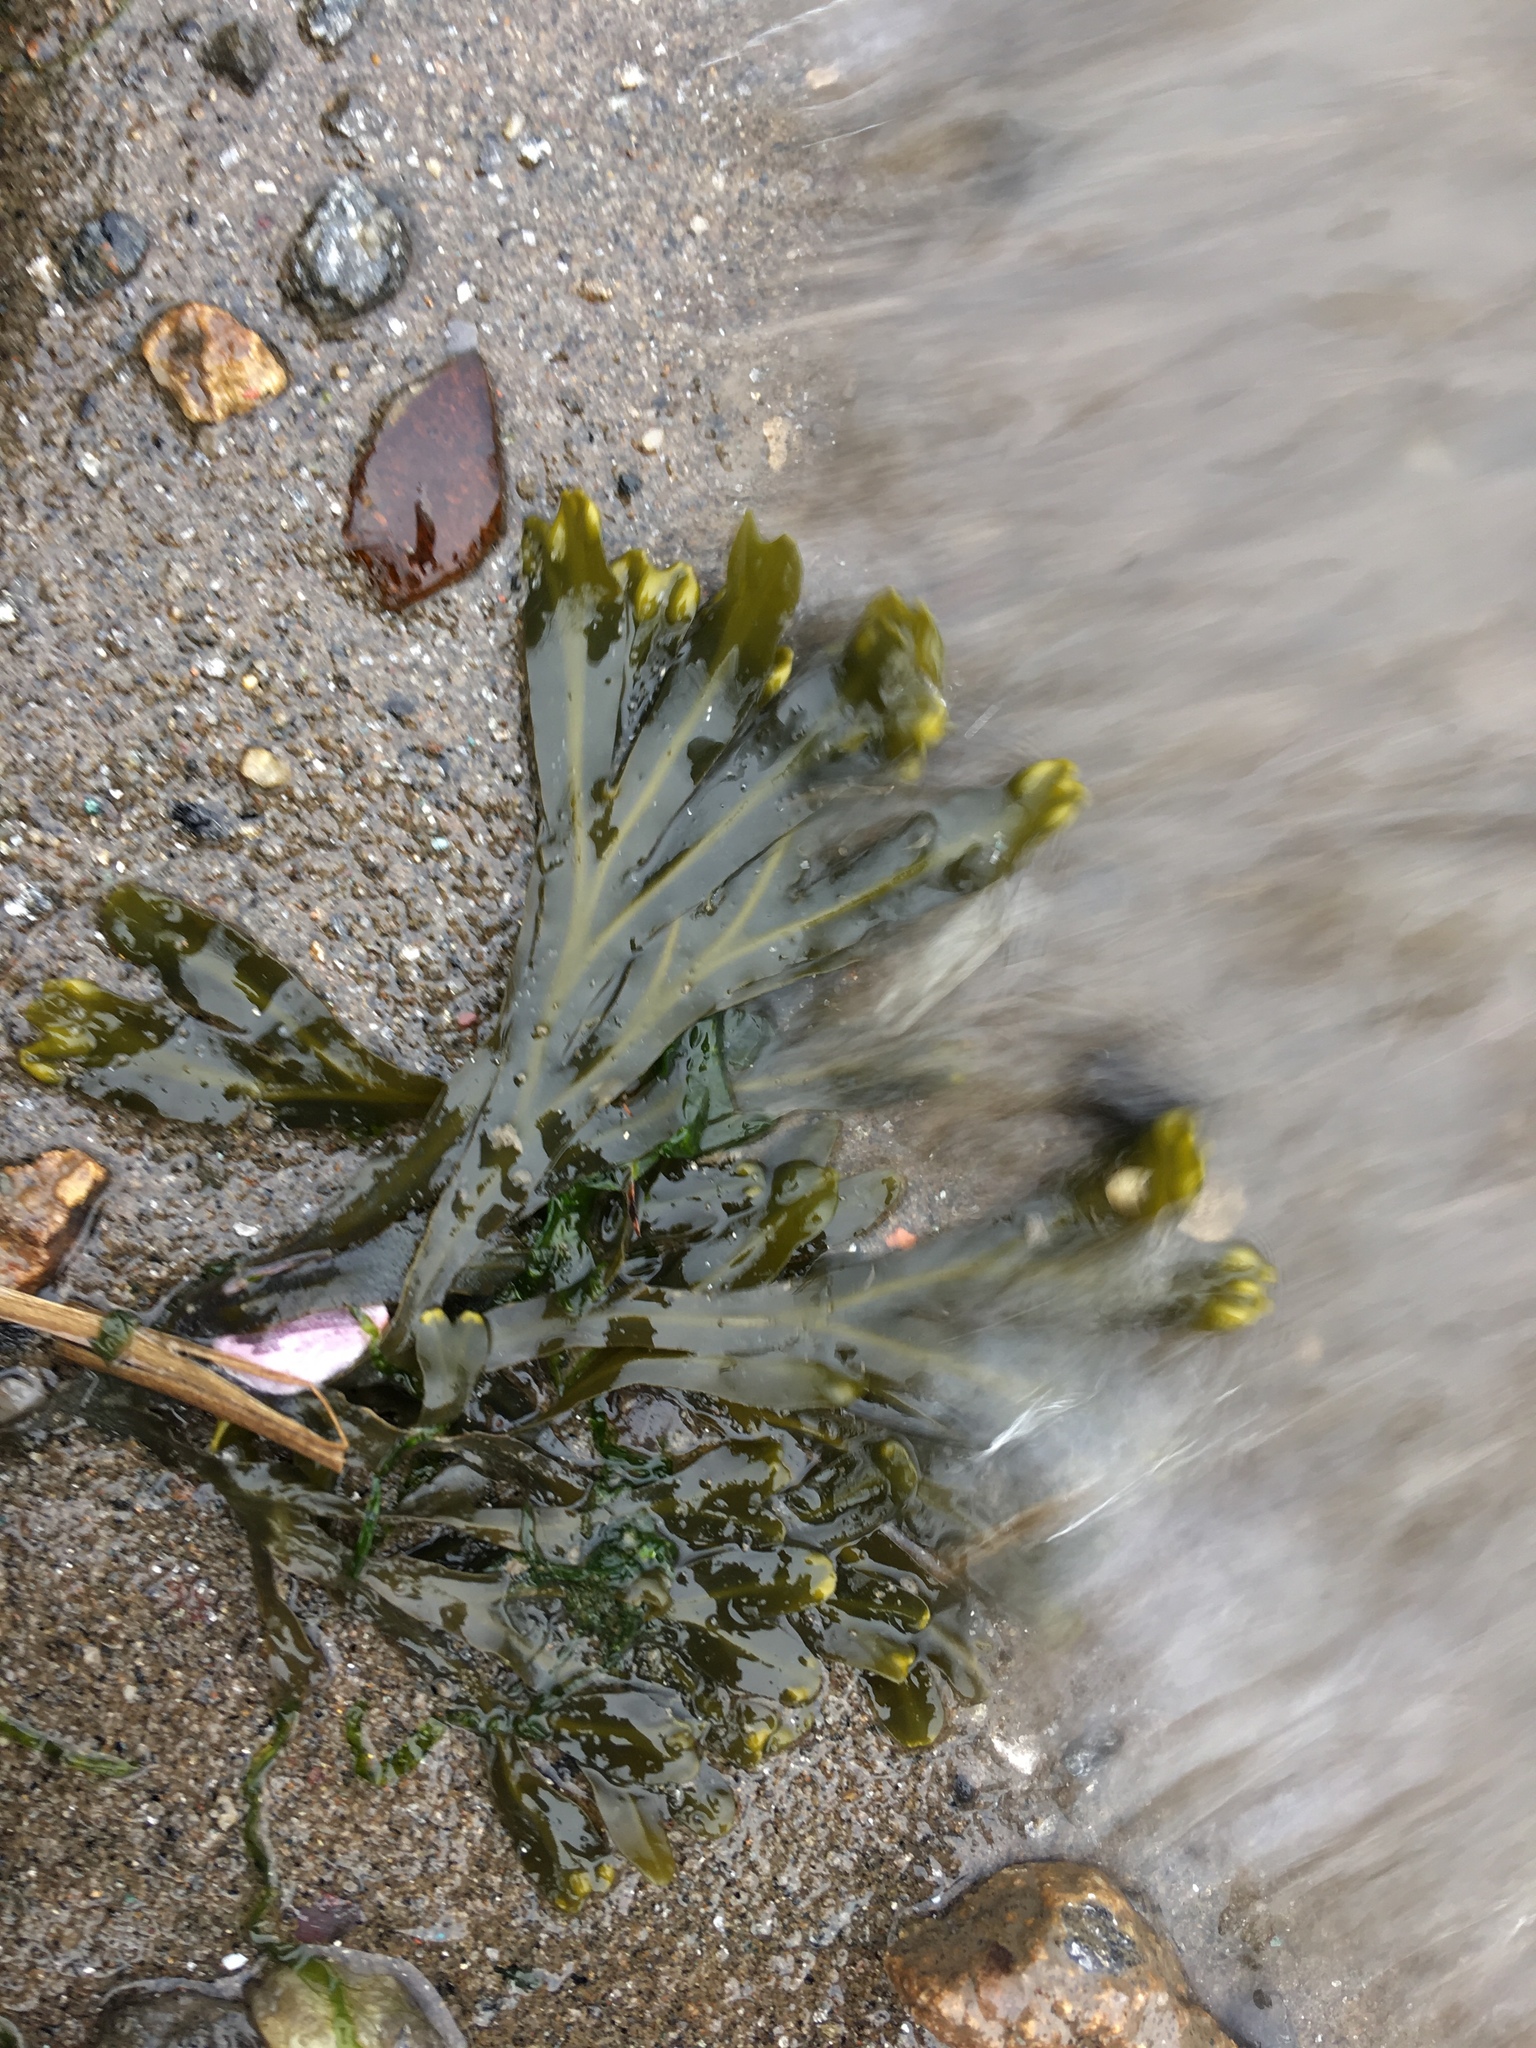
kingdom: Chromista
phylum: Ochrophyta
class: Phaeophyceae
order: Fucales
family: Fucaceae
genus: Fucus
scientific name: Fucus distichus
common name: Rockweed
